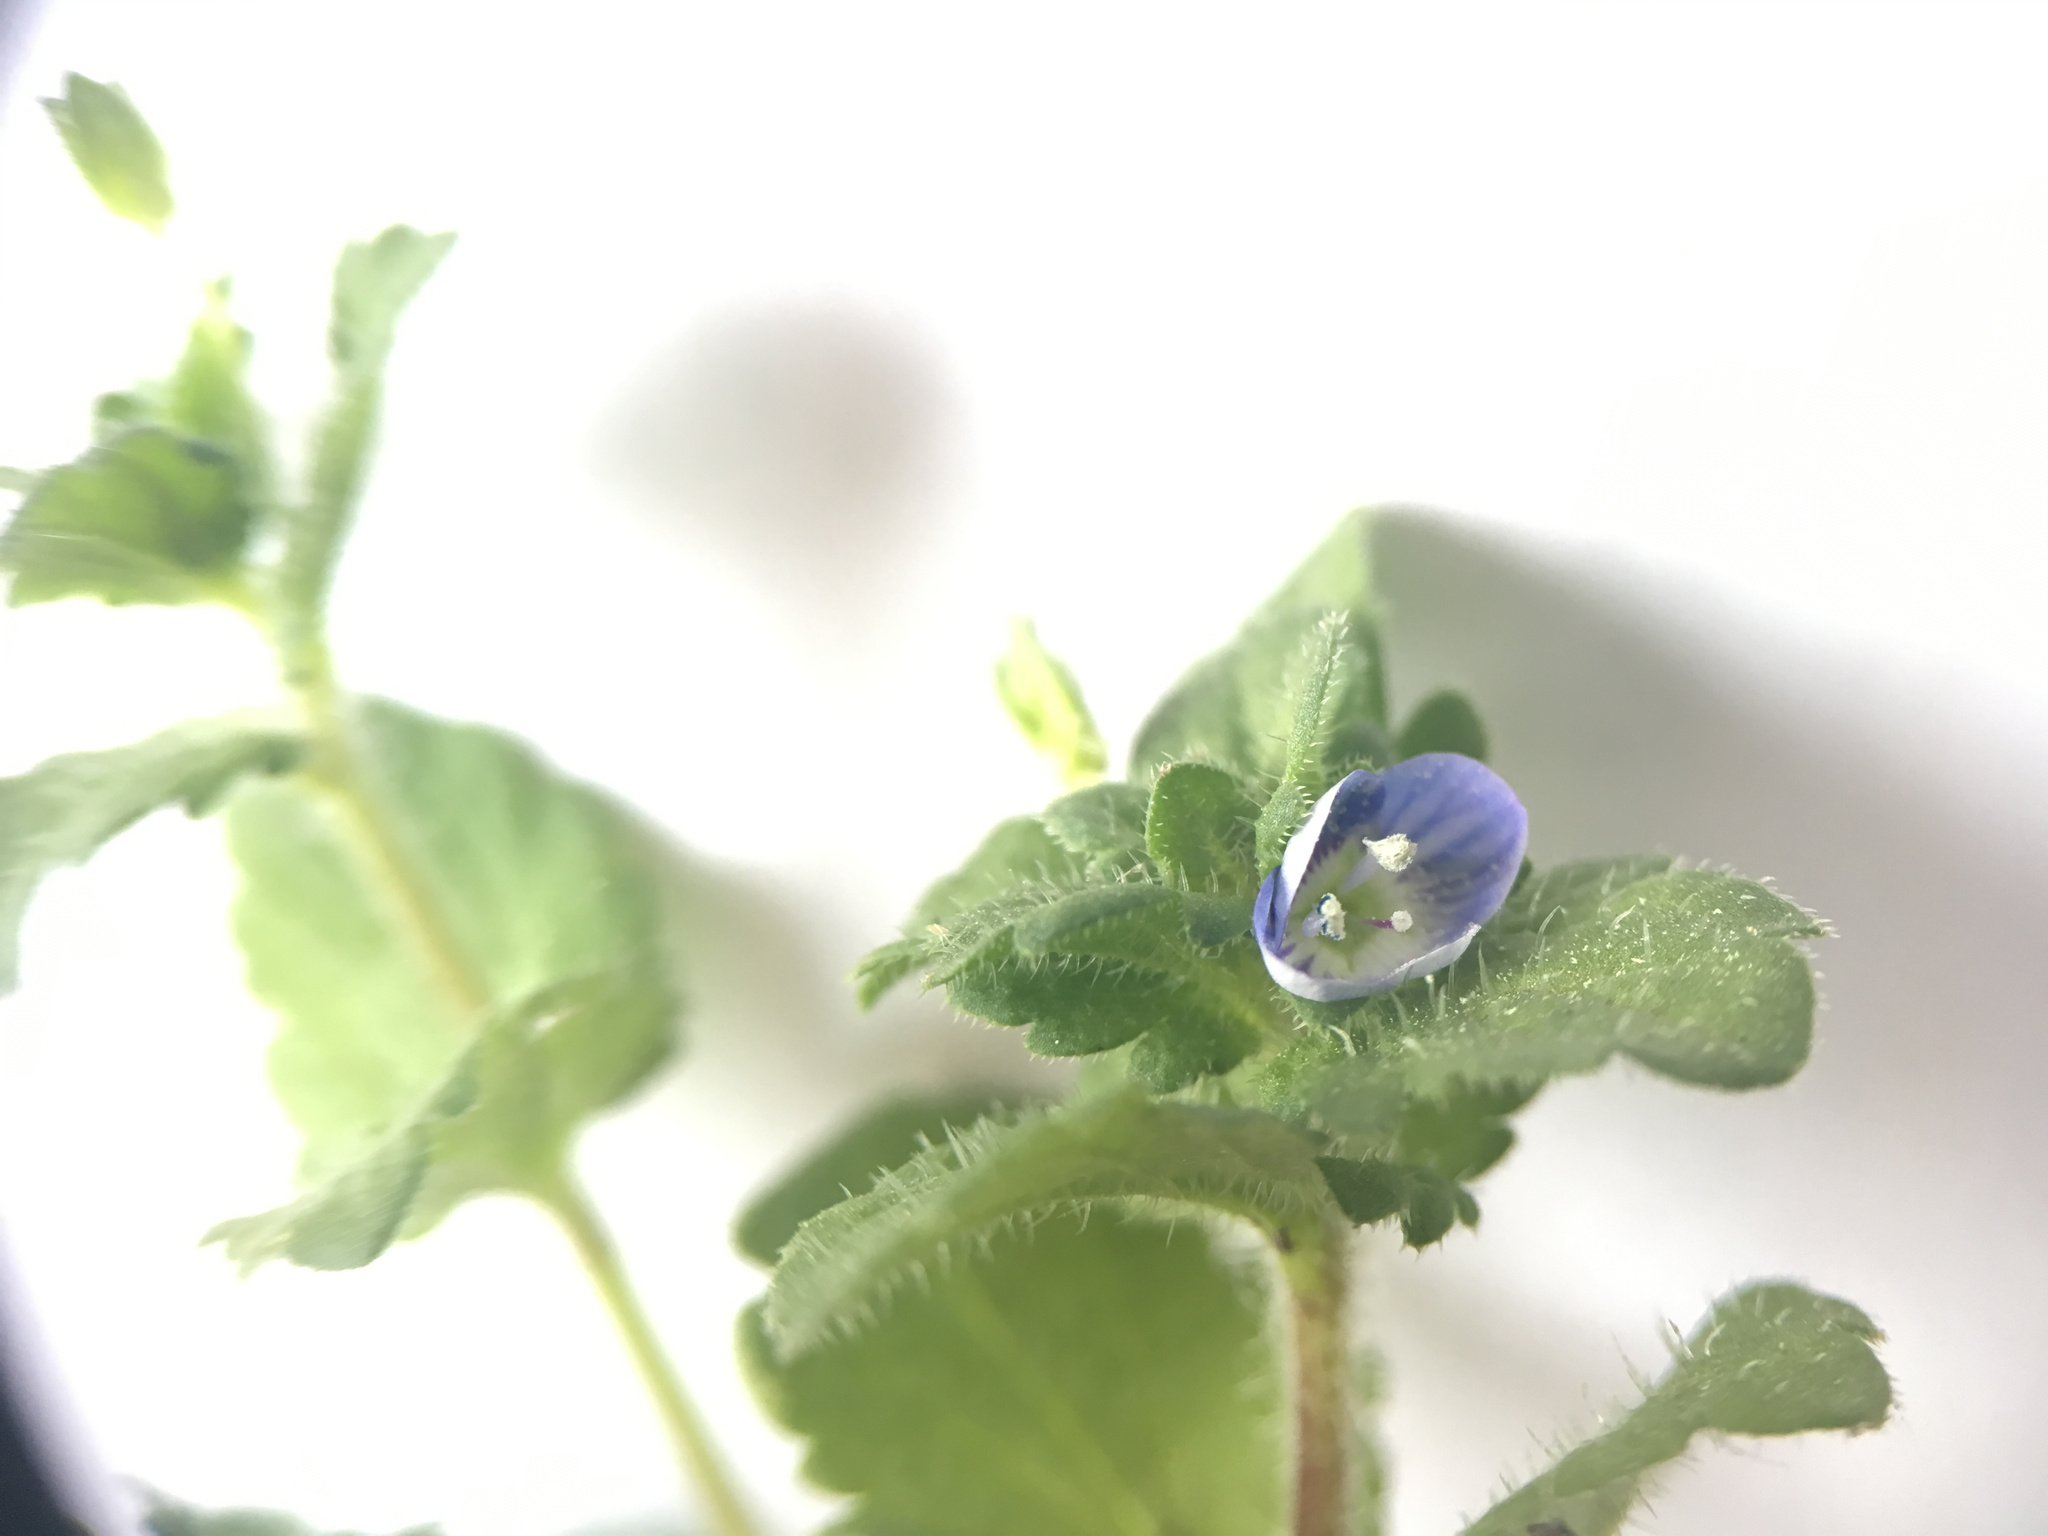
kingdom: Plantae
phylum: Tracheophyta
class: Magnoliopsida
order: Lamiales
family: Plantaginaceae
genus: Veronica
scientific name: Veronica persica
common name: Common field-speedwell
